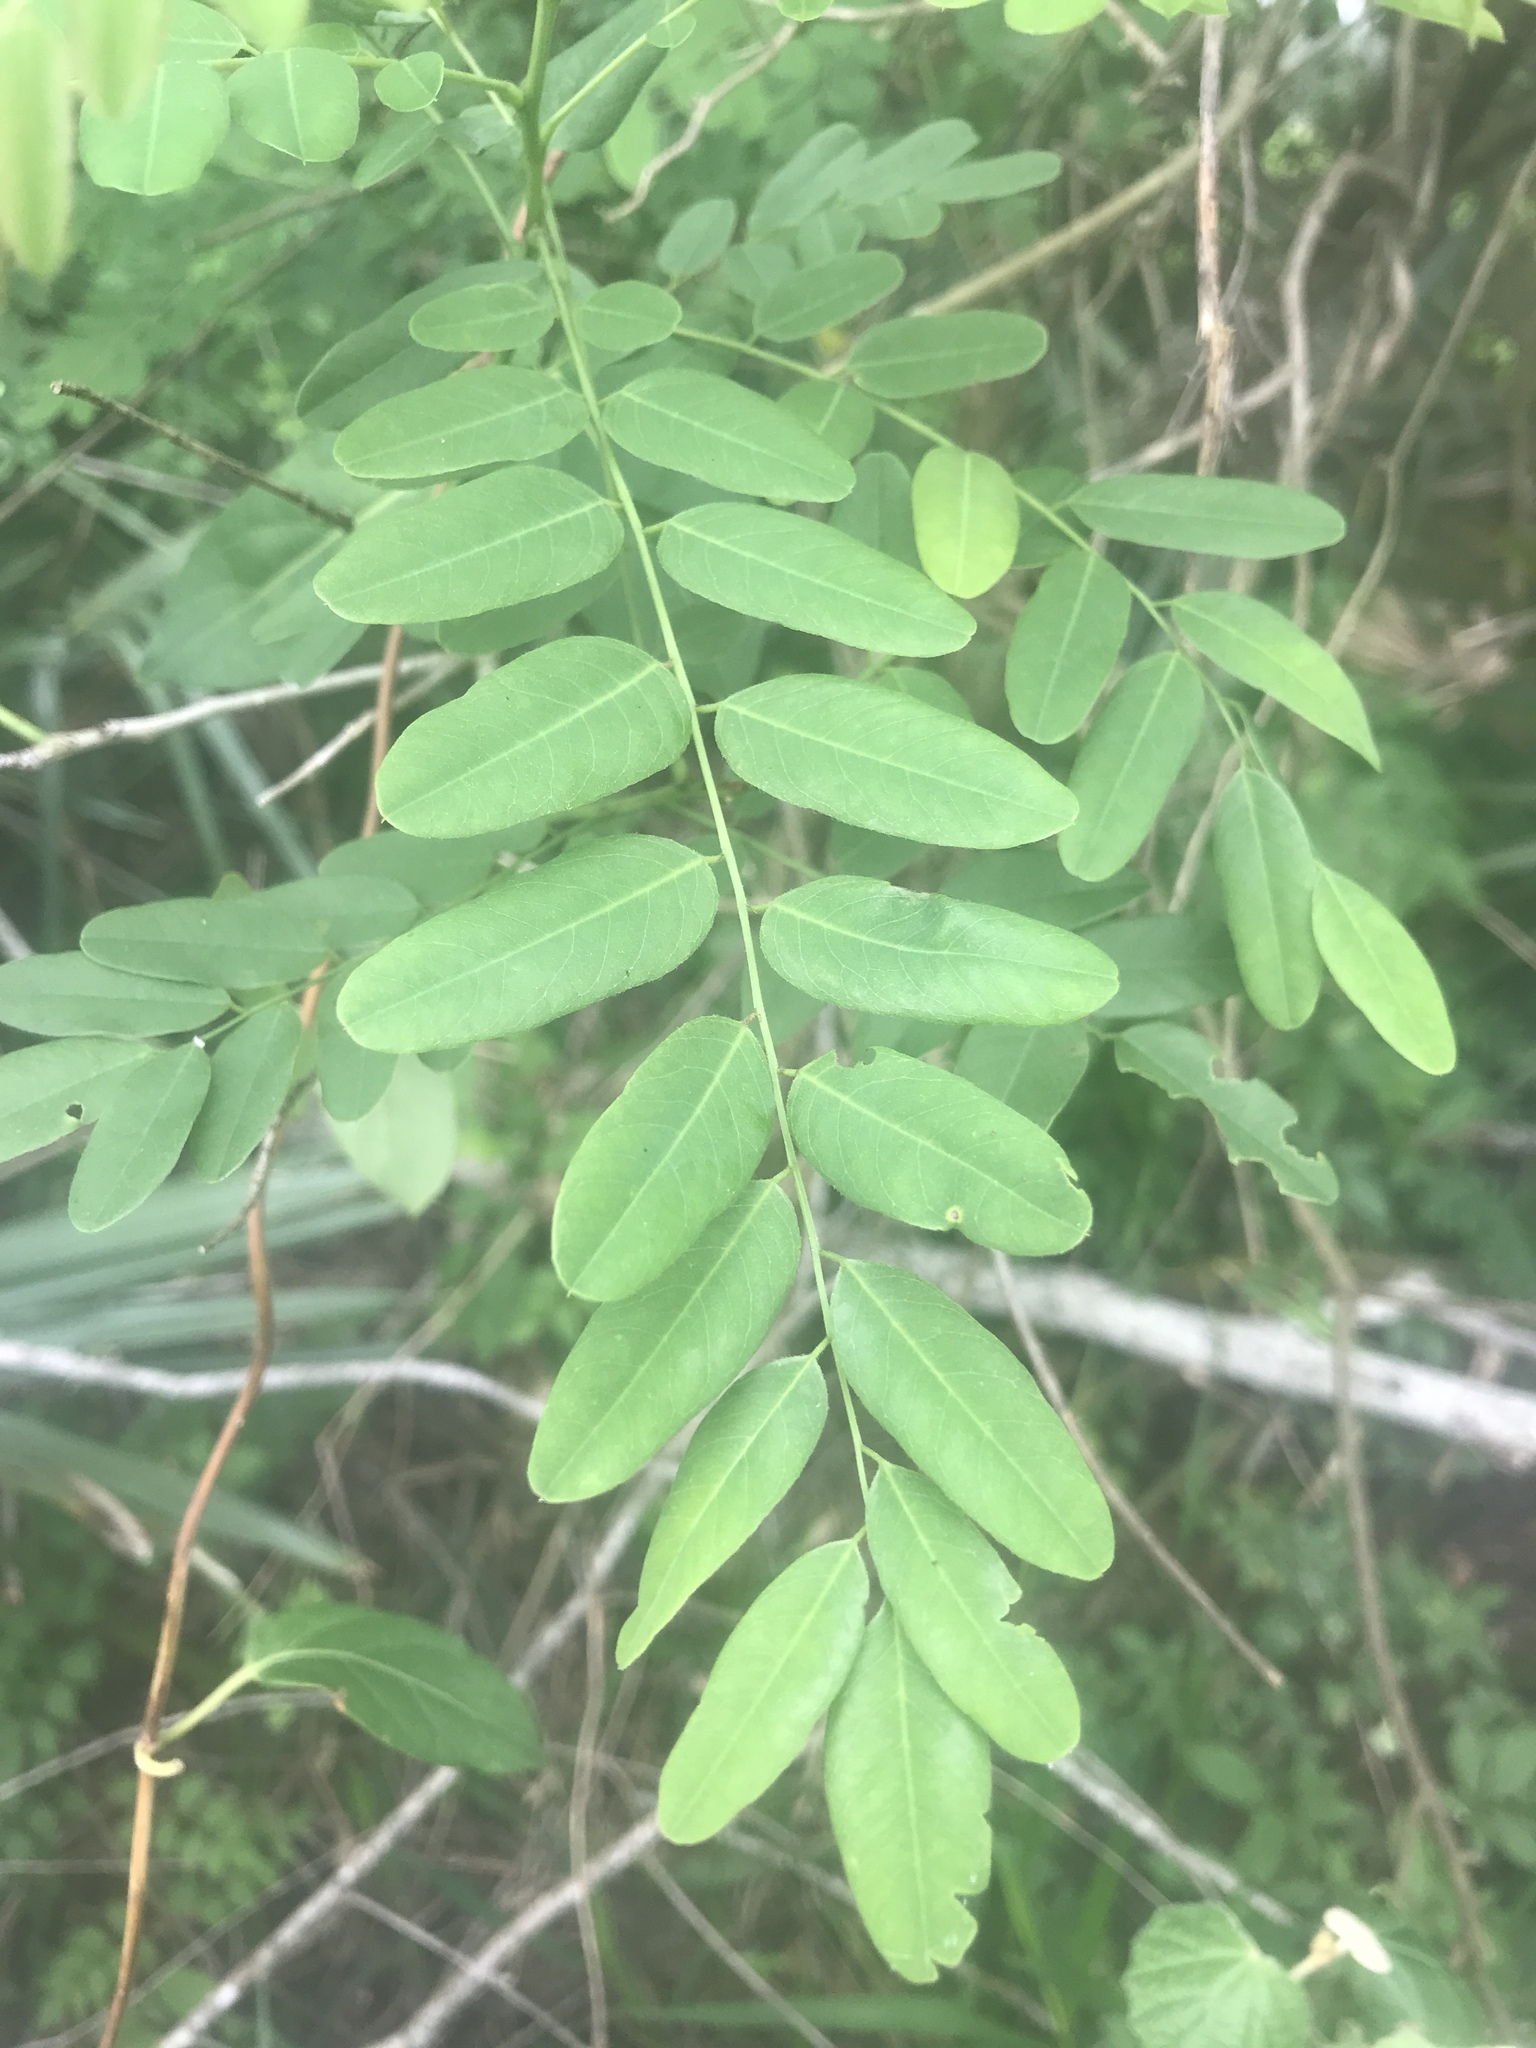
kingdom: Plantae
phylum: Tracheophyta
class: Magnoliopsida
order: Fabales
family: Fabaceae
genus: Amorpha
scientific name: Amorpha fruticosa
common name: False indigo
